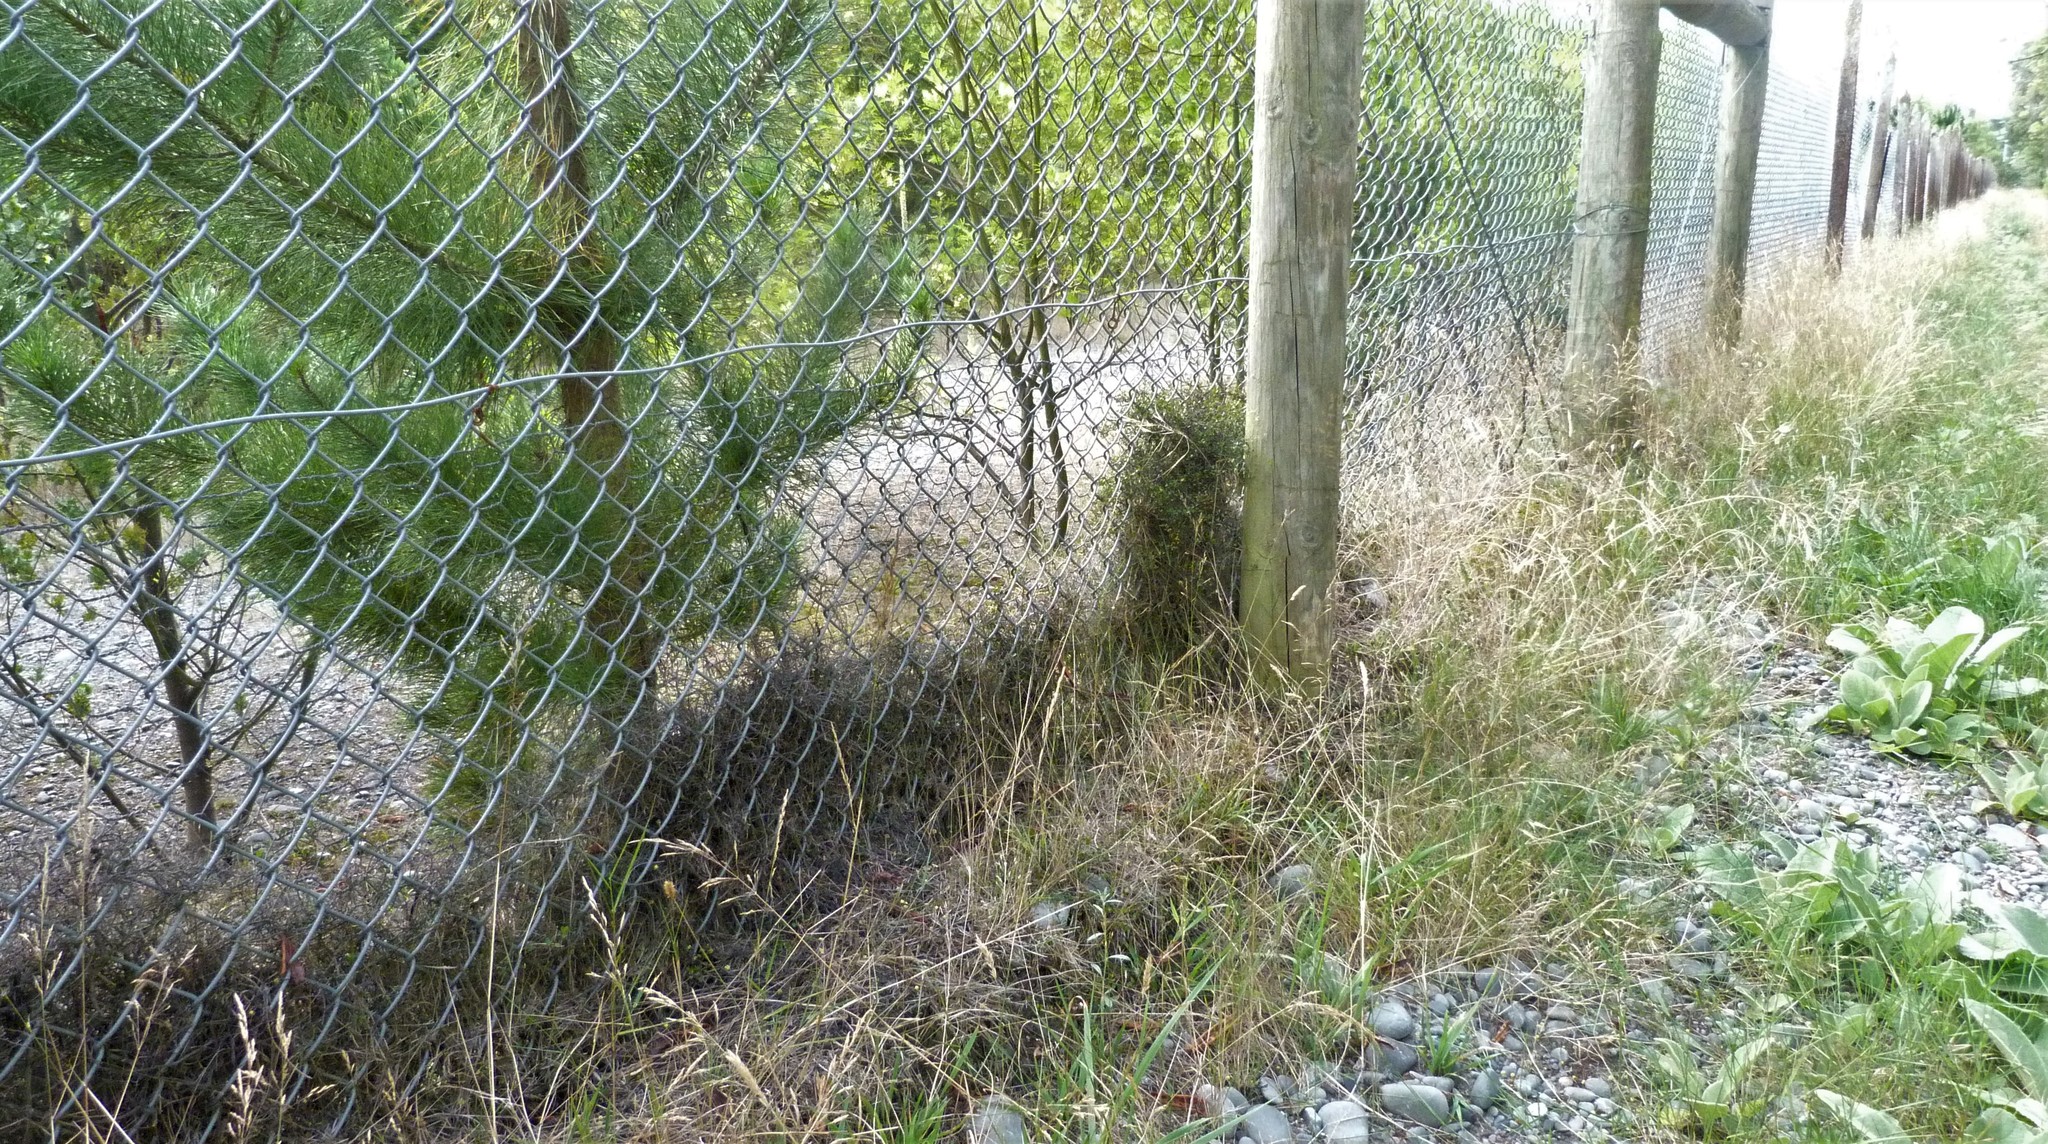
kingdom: Plantae
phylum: Tracheophyta
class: Magnoliopsida
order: Caryophyllales
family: Polygonaceae
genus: Muehlenbeckia
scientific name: Muehlenbeckia axillaris
